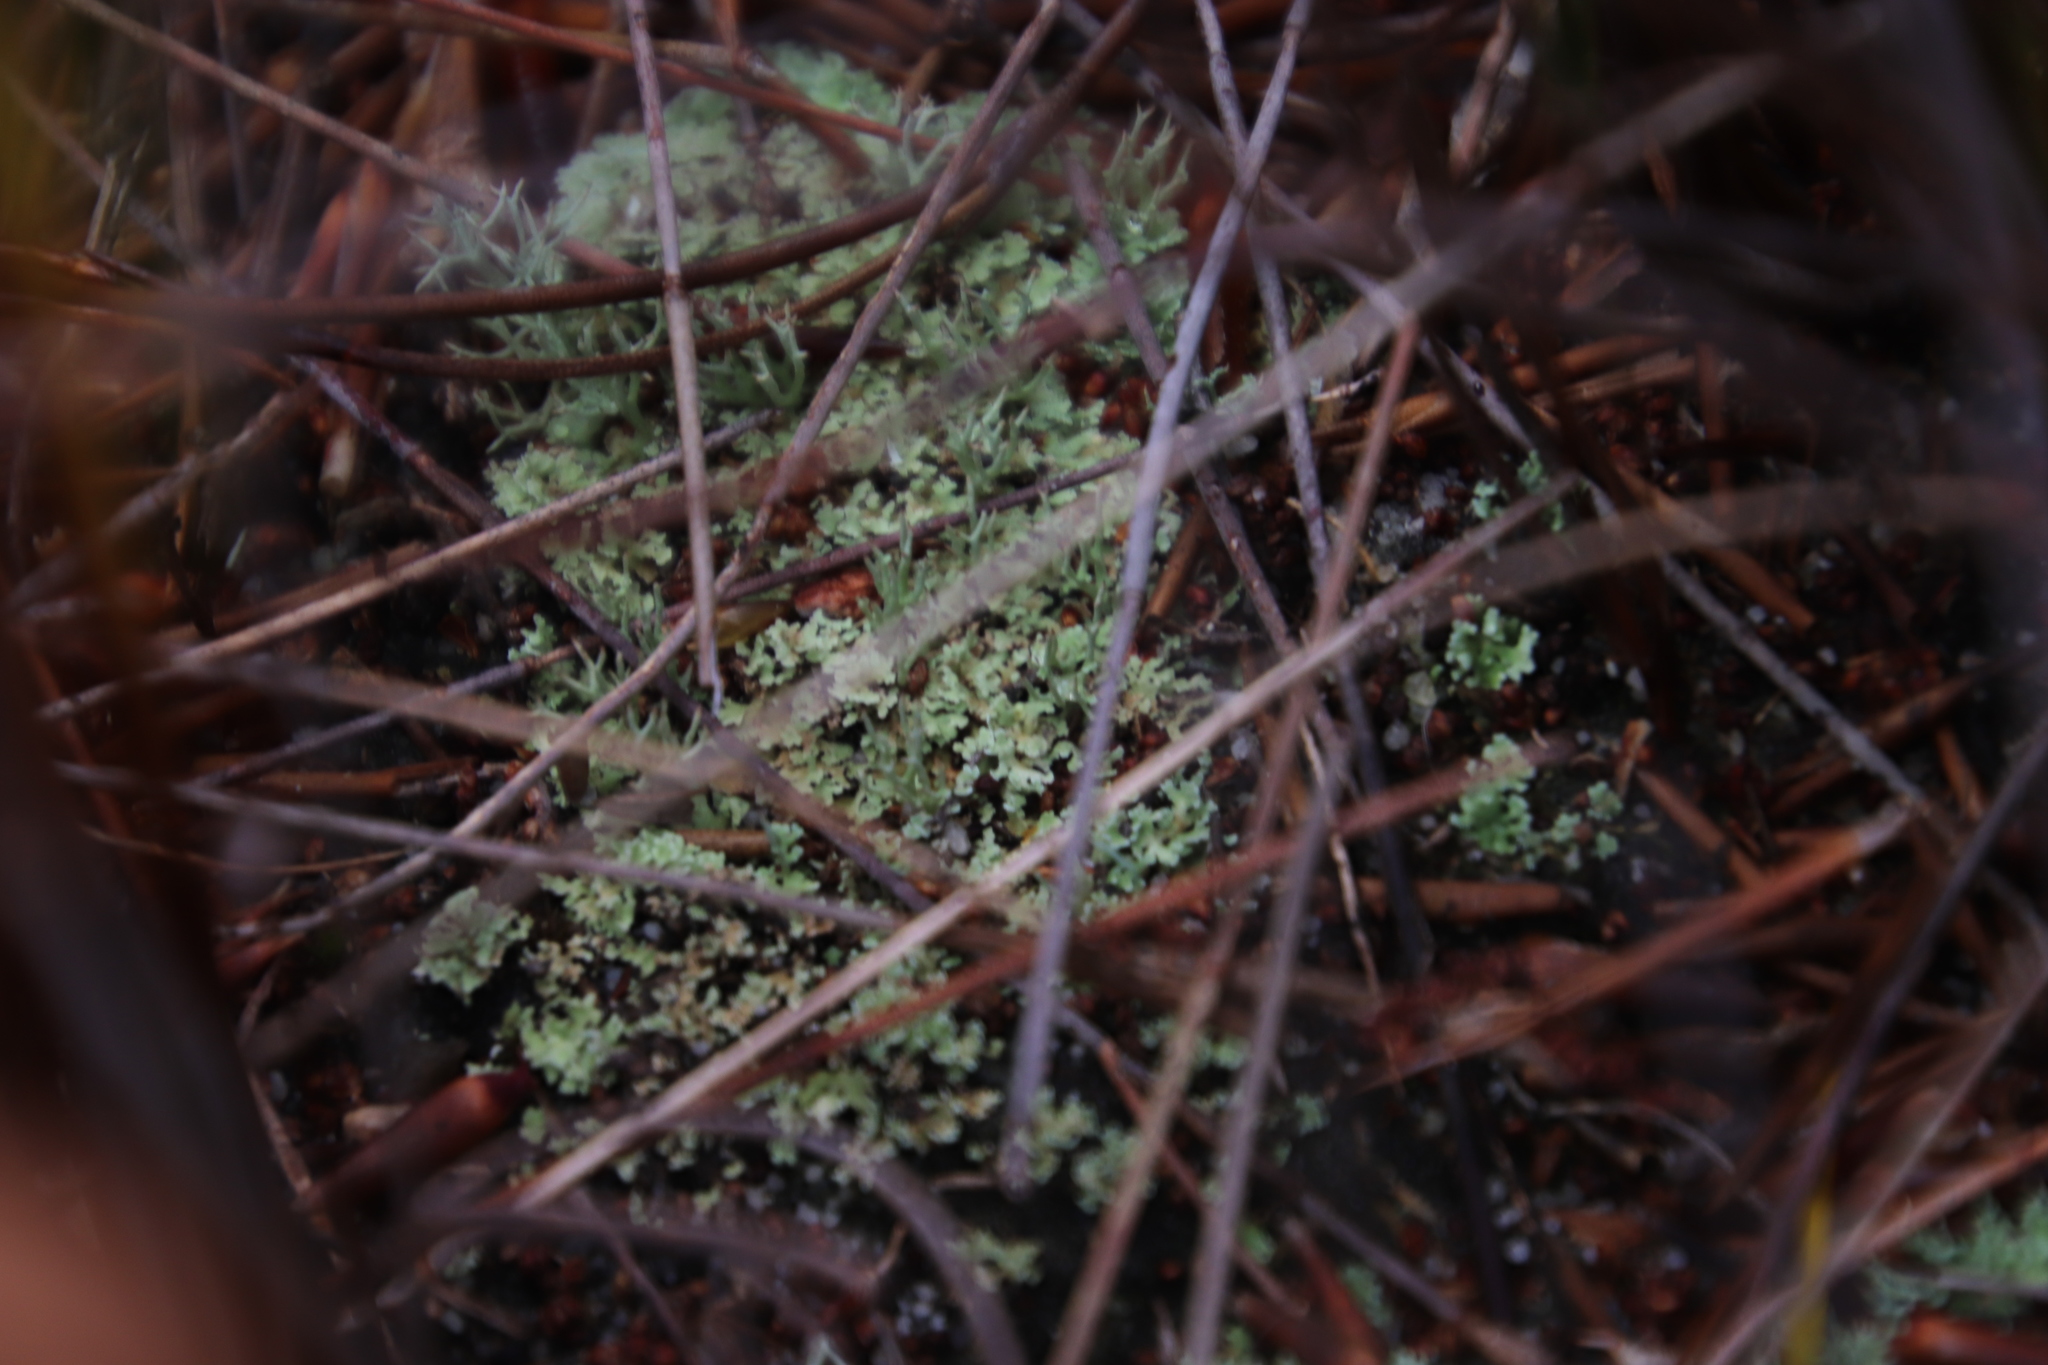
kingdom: Fungi
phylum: Ascomycota
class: Lecanoromycetes
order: Lecanorales
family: Cladoniaceae
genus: Cladonia
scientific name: Cladonia
